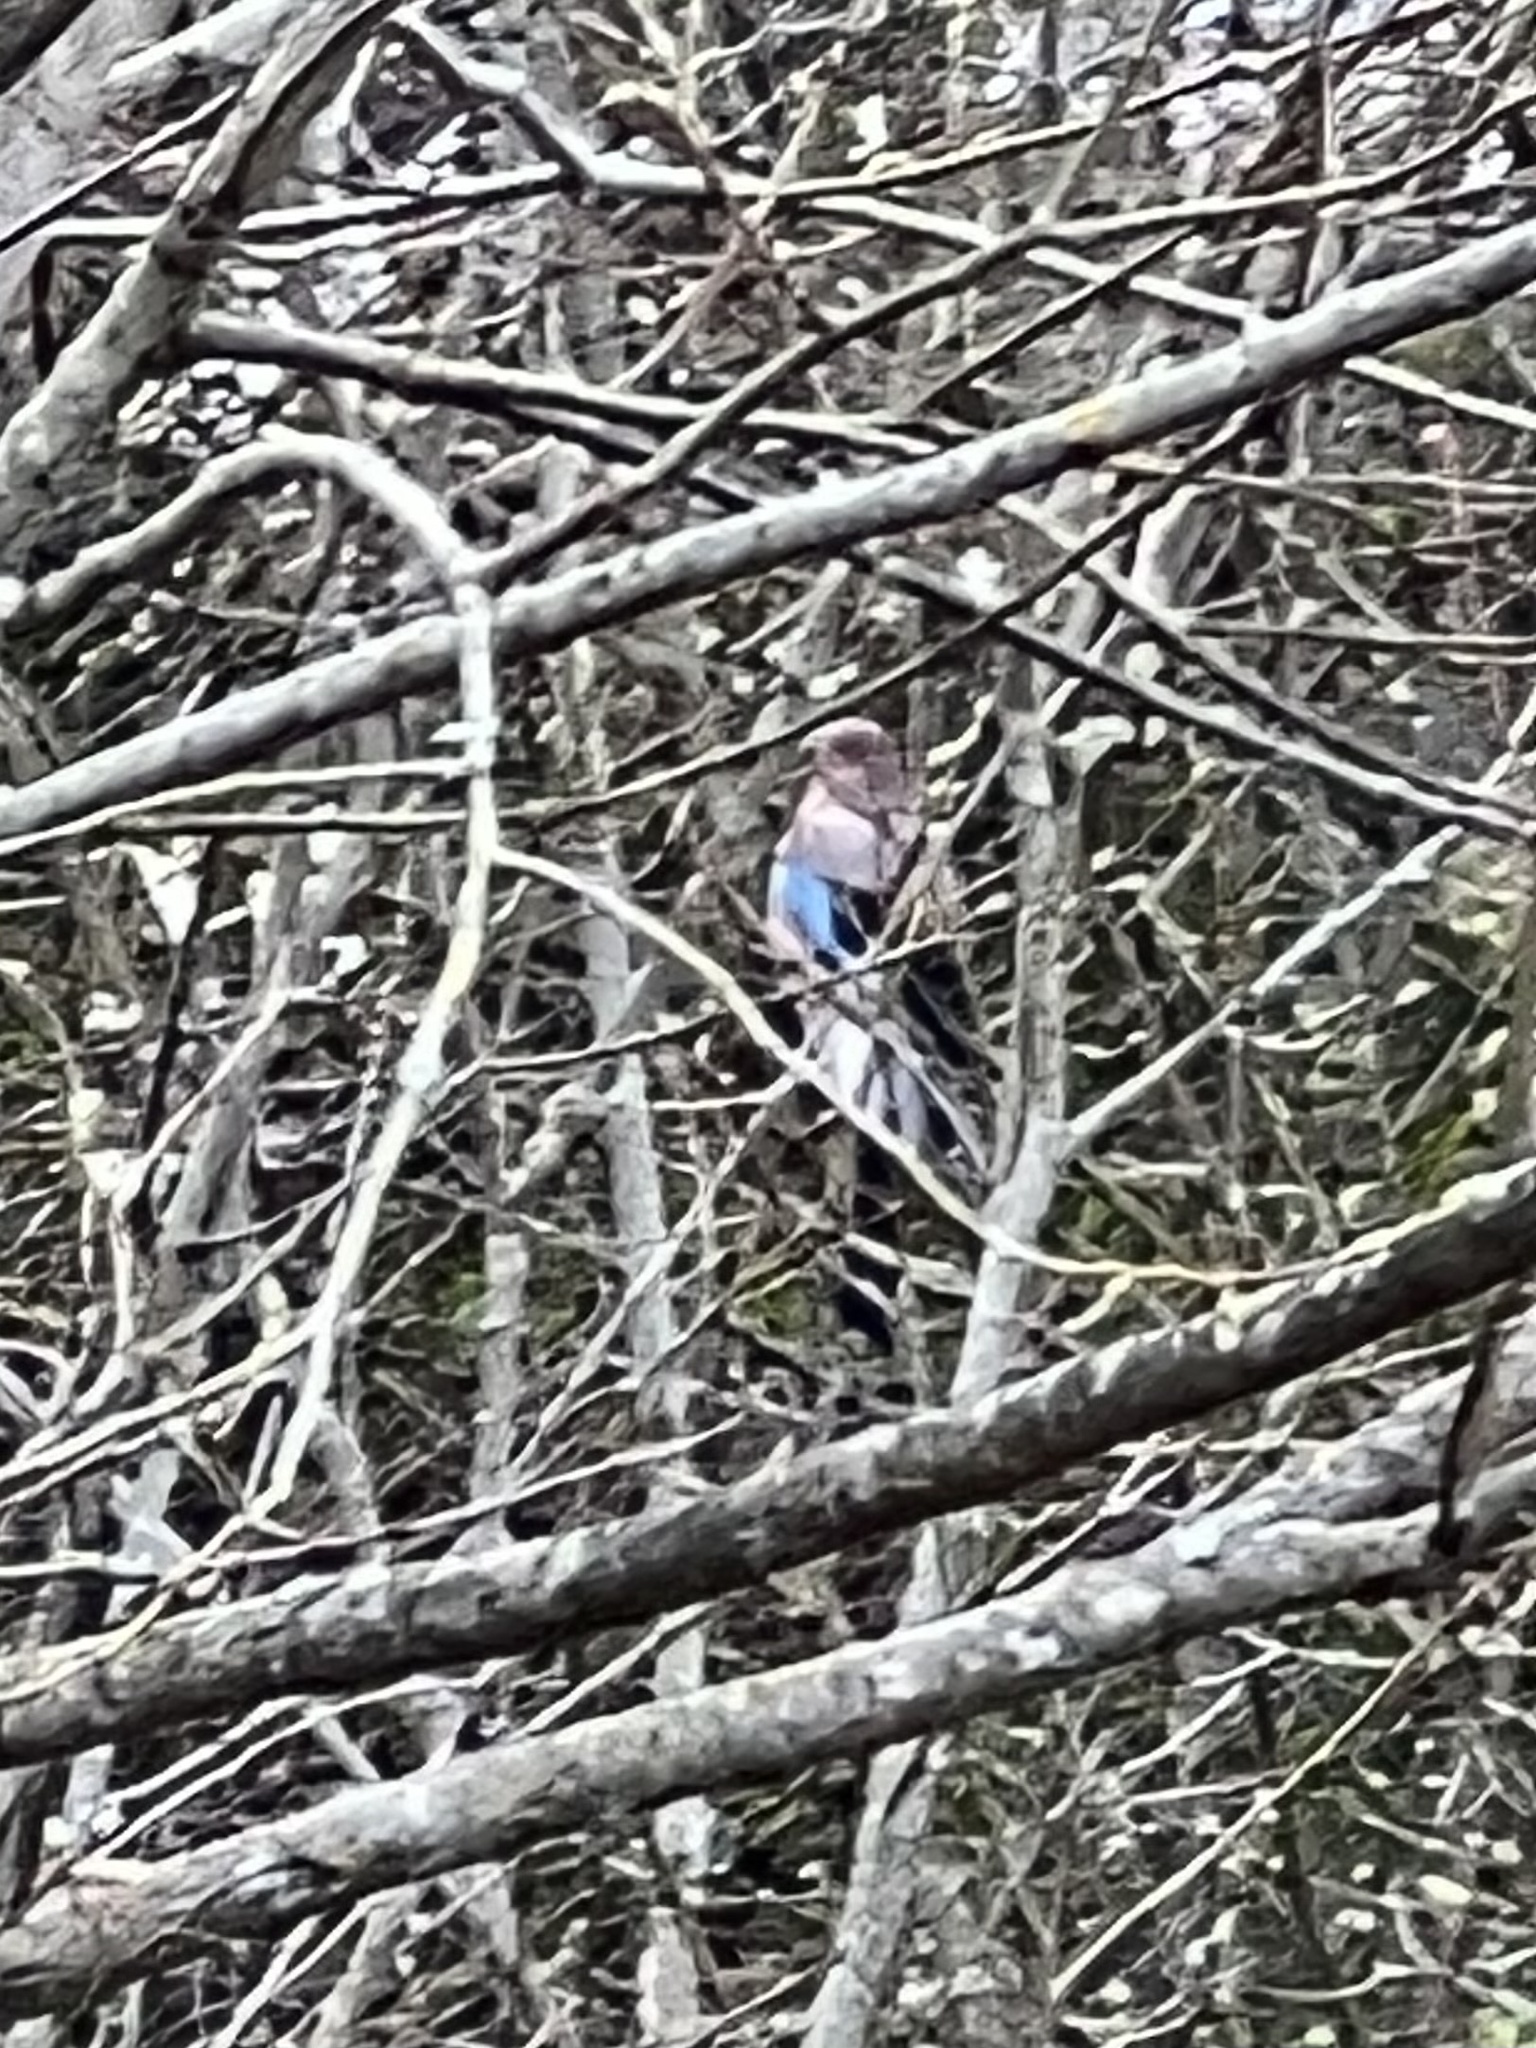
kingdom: Animalia
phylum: Chordata
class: Aves
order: Passeriformes
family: Corvidae
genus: Garrulus
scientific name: Garrulus glandarius
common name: Eurasian jay
